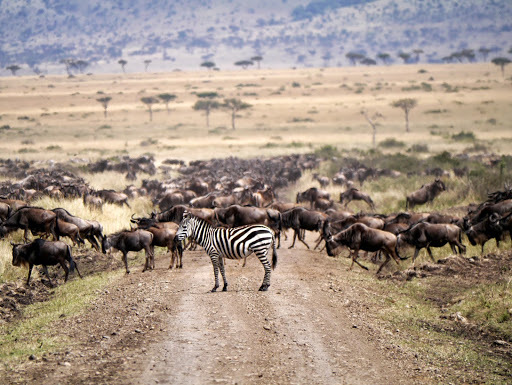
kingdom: Animalia
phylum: Chordata
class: Mammalia
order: Perissodactyla
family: Equidae
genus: Equus
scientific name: Equus quagga
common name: Plains zebra
